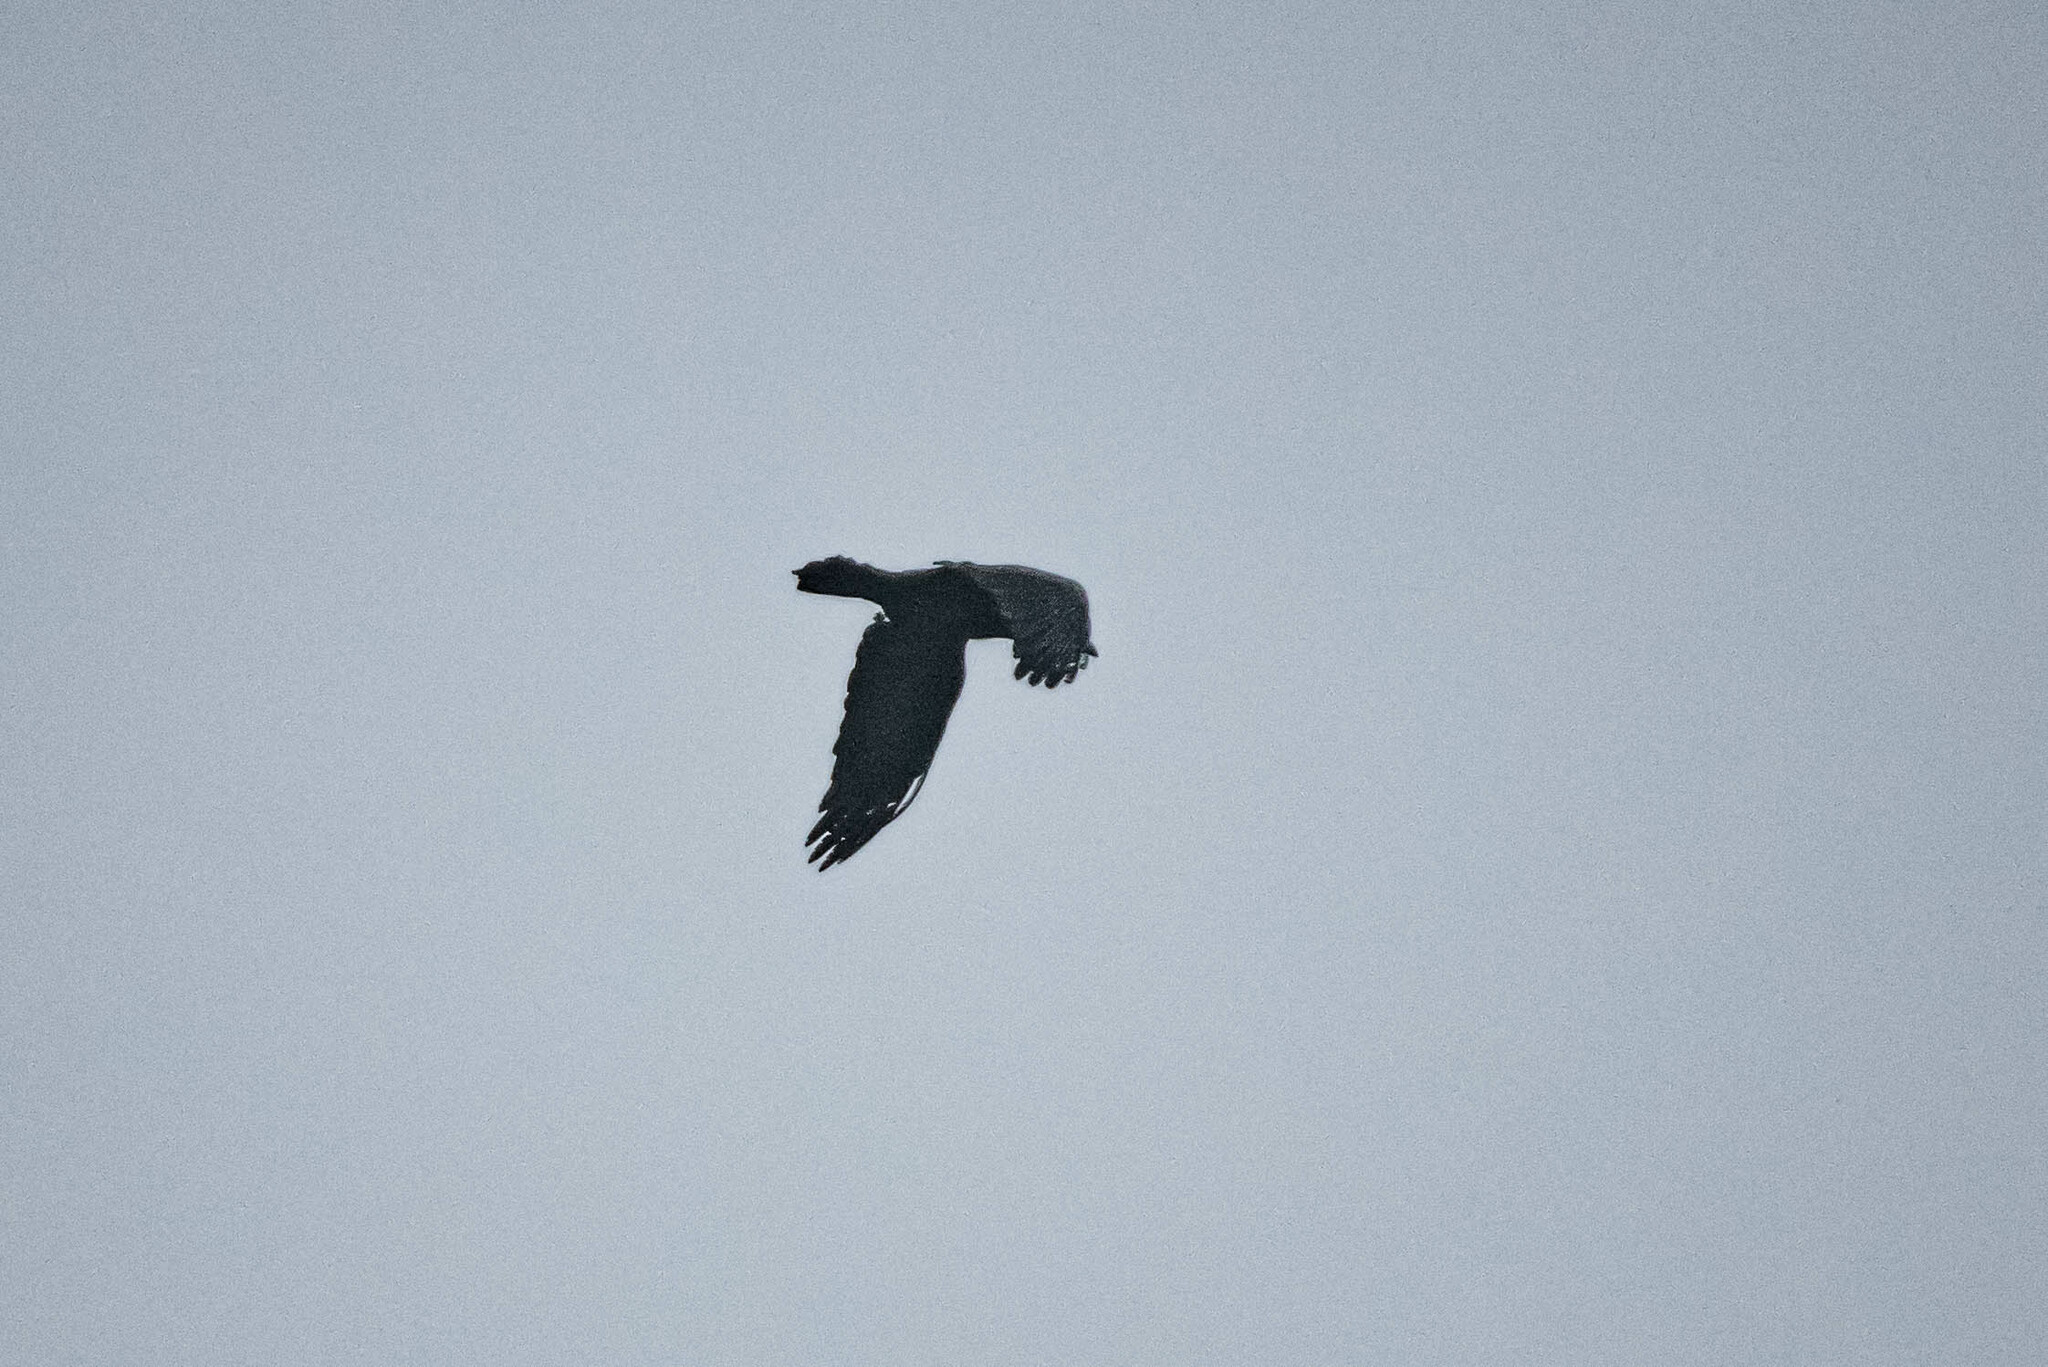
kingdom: Animalia
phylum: Chordata
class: Aves
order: Passeriformes
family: Corvidae
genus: Corvus
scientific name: Corvus corax
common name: Common raven
